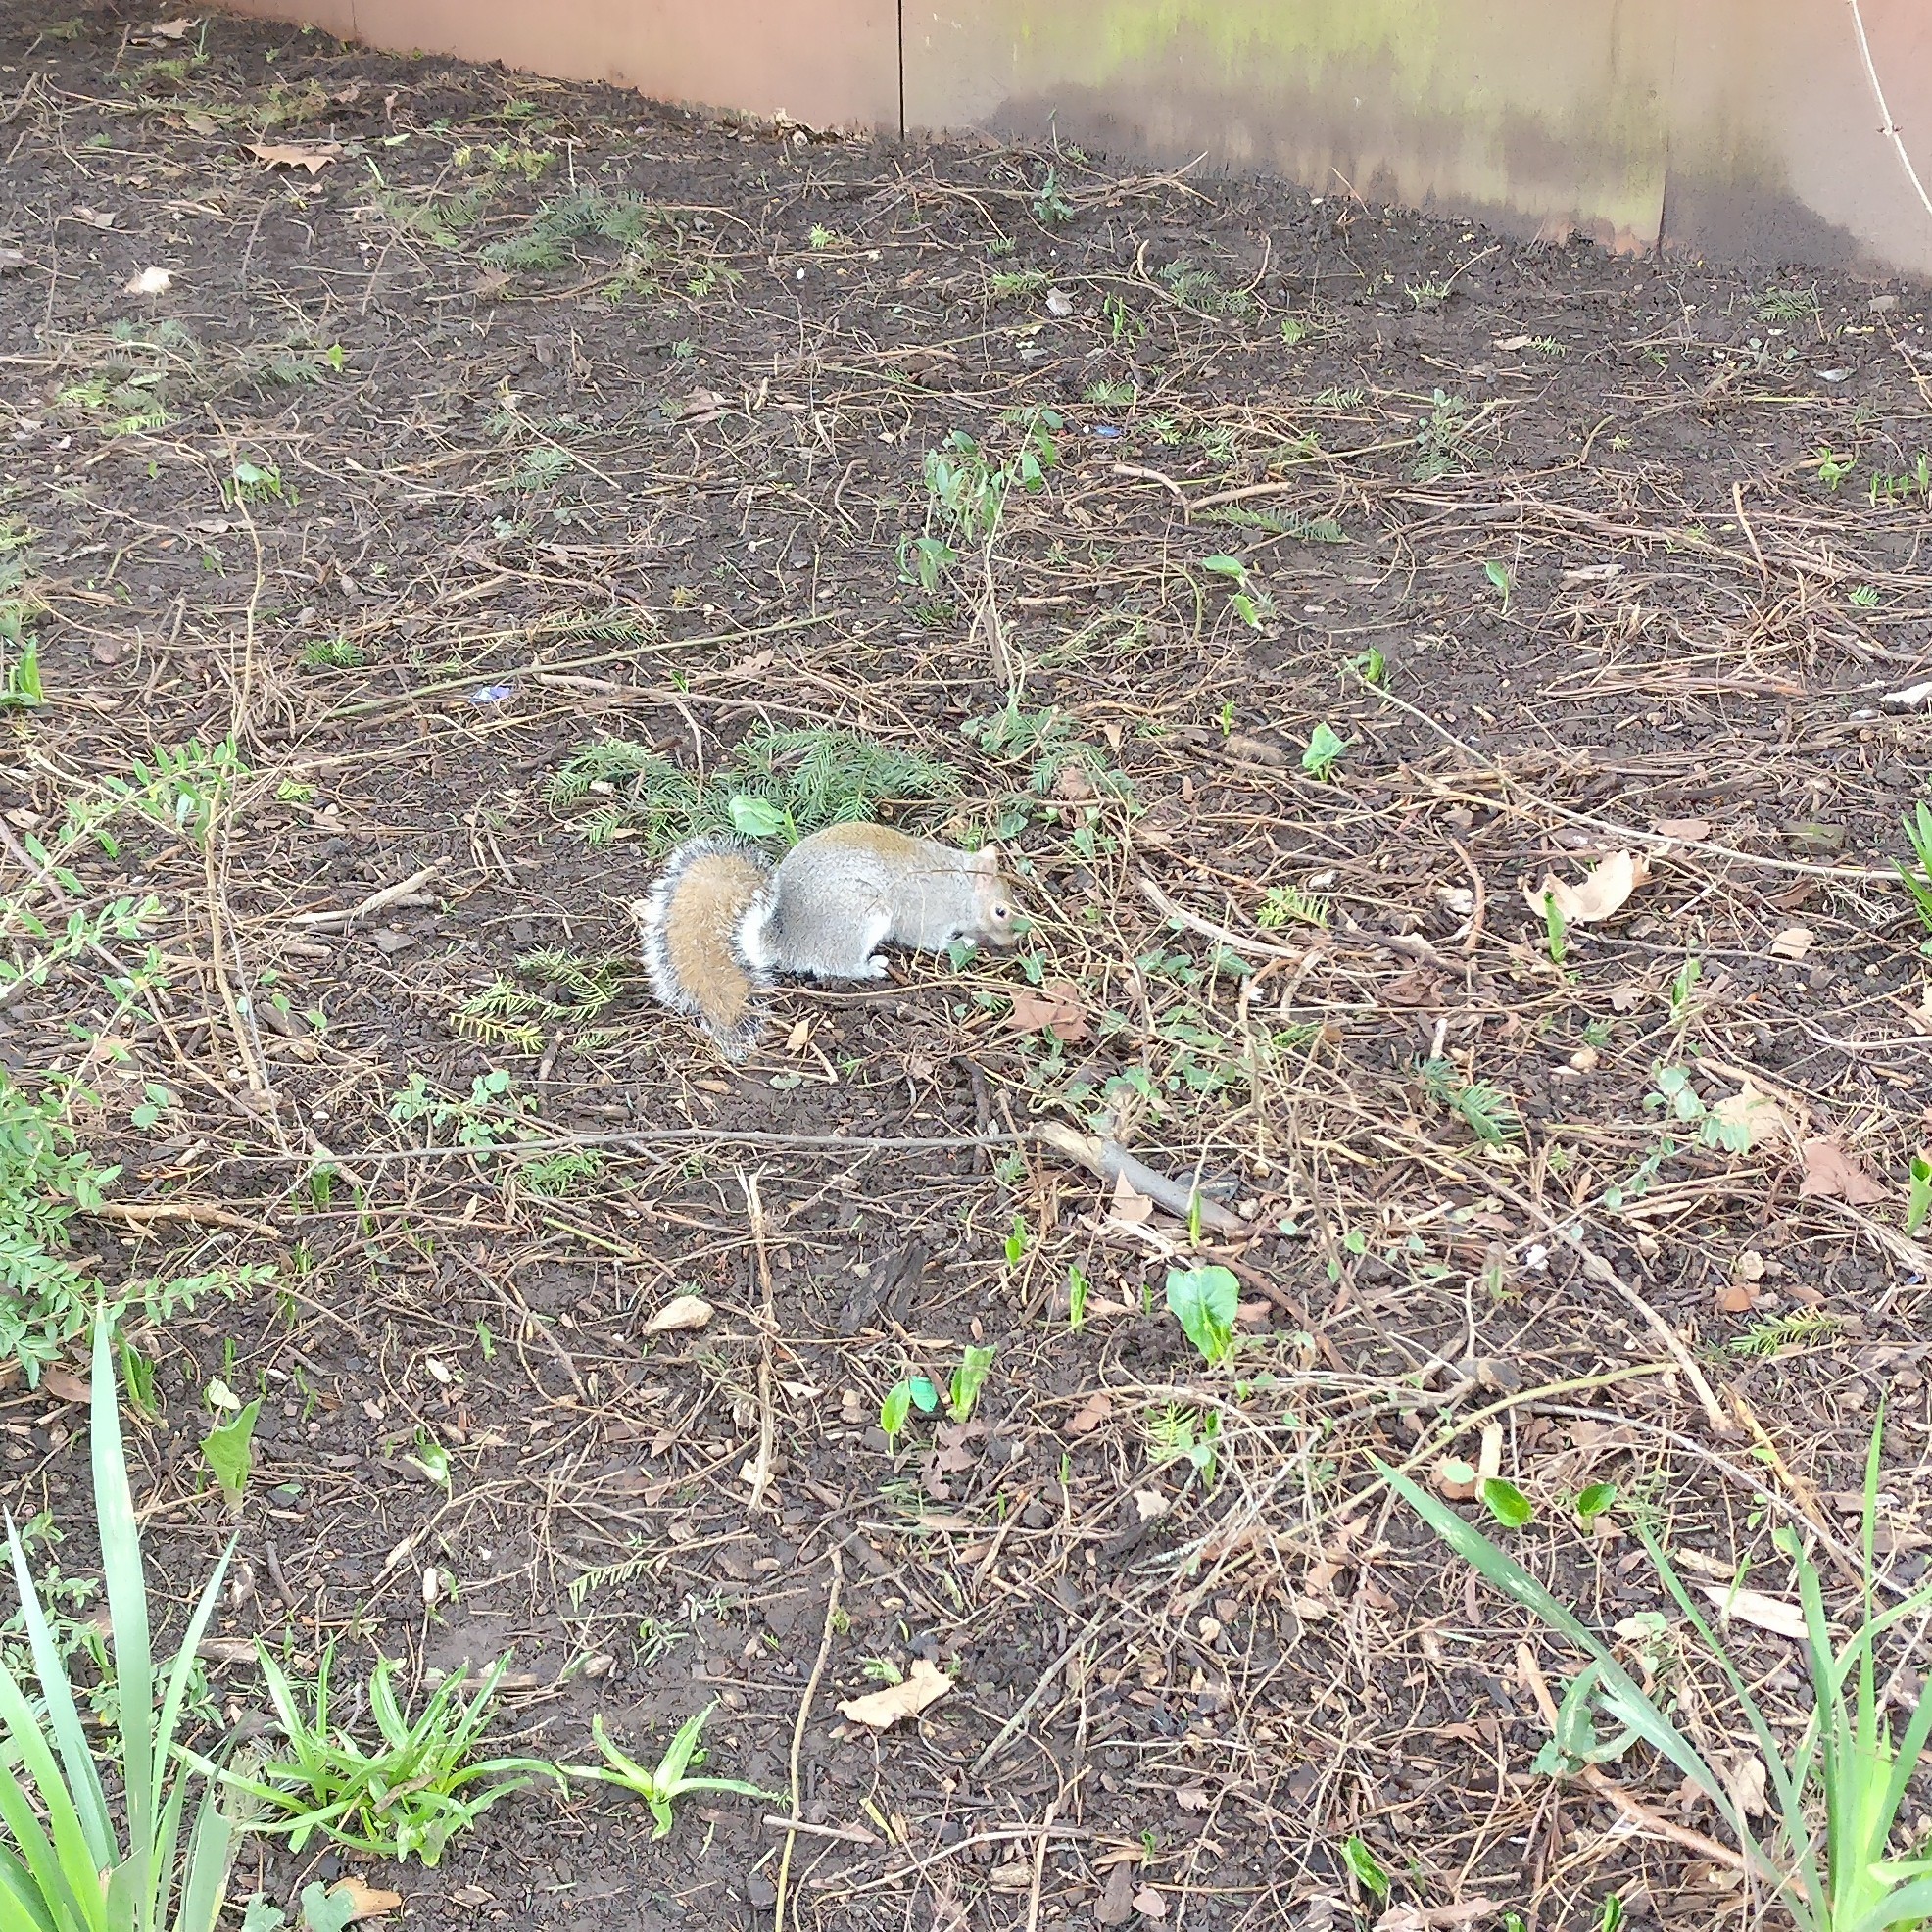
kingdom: Animalia
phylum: Chordata
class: Mammalia
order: Rodentia
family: Sciuridae
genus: Sciurus
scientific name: Sciurus carolinensis
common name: Eastern gray squirrel
